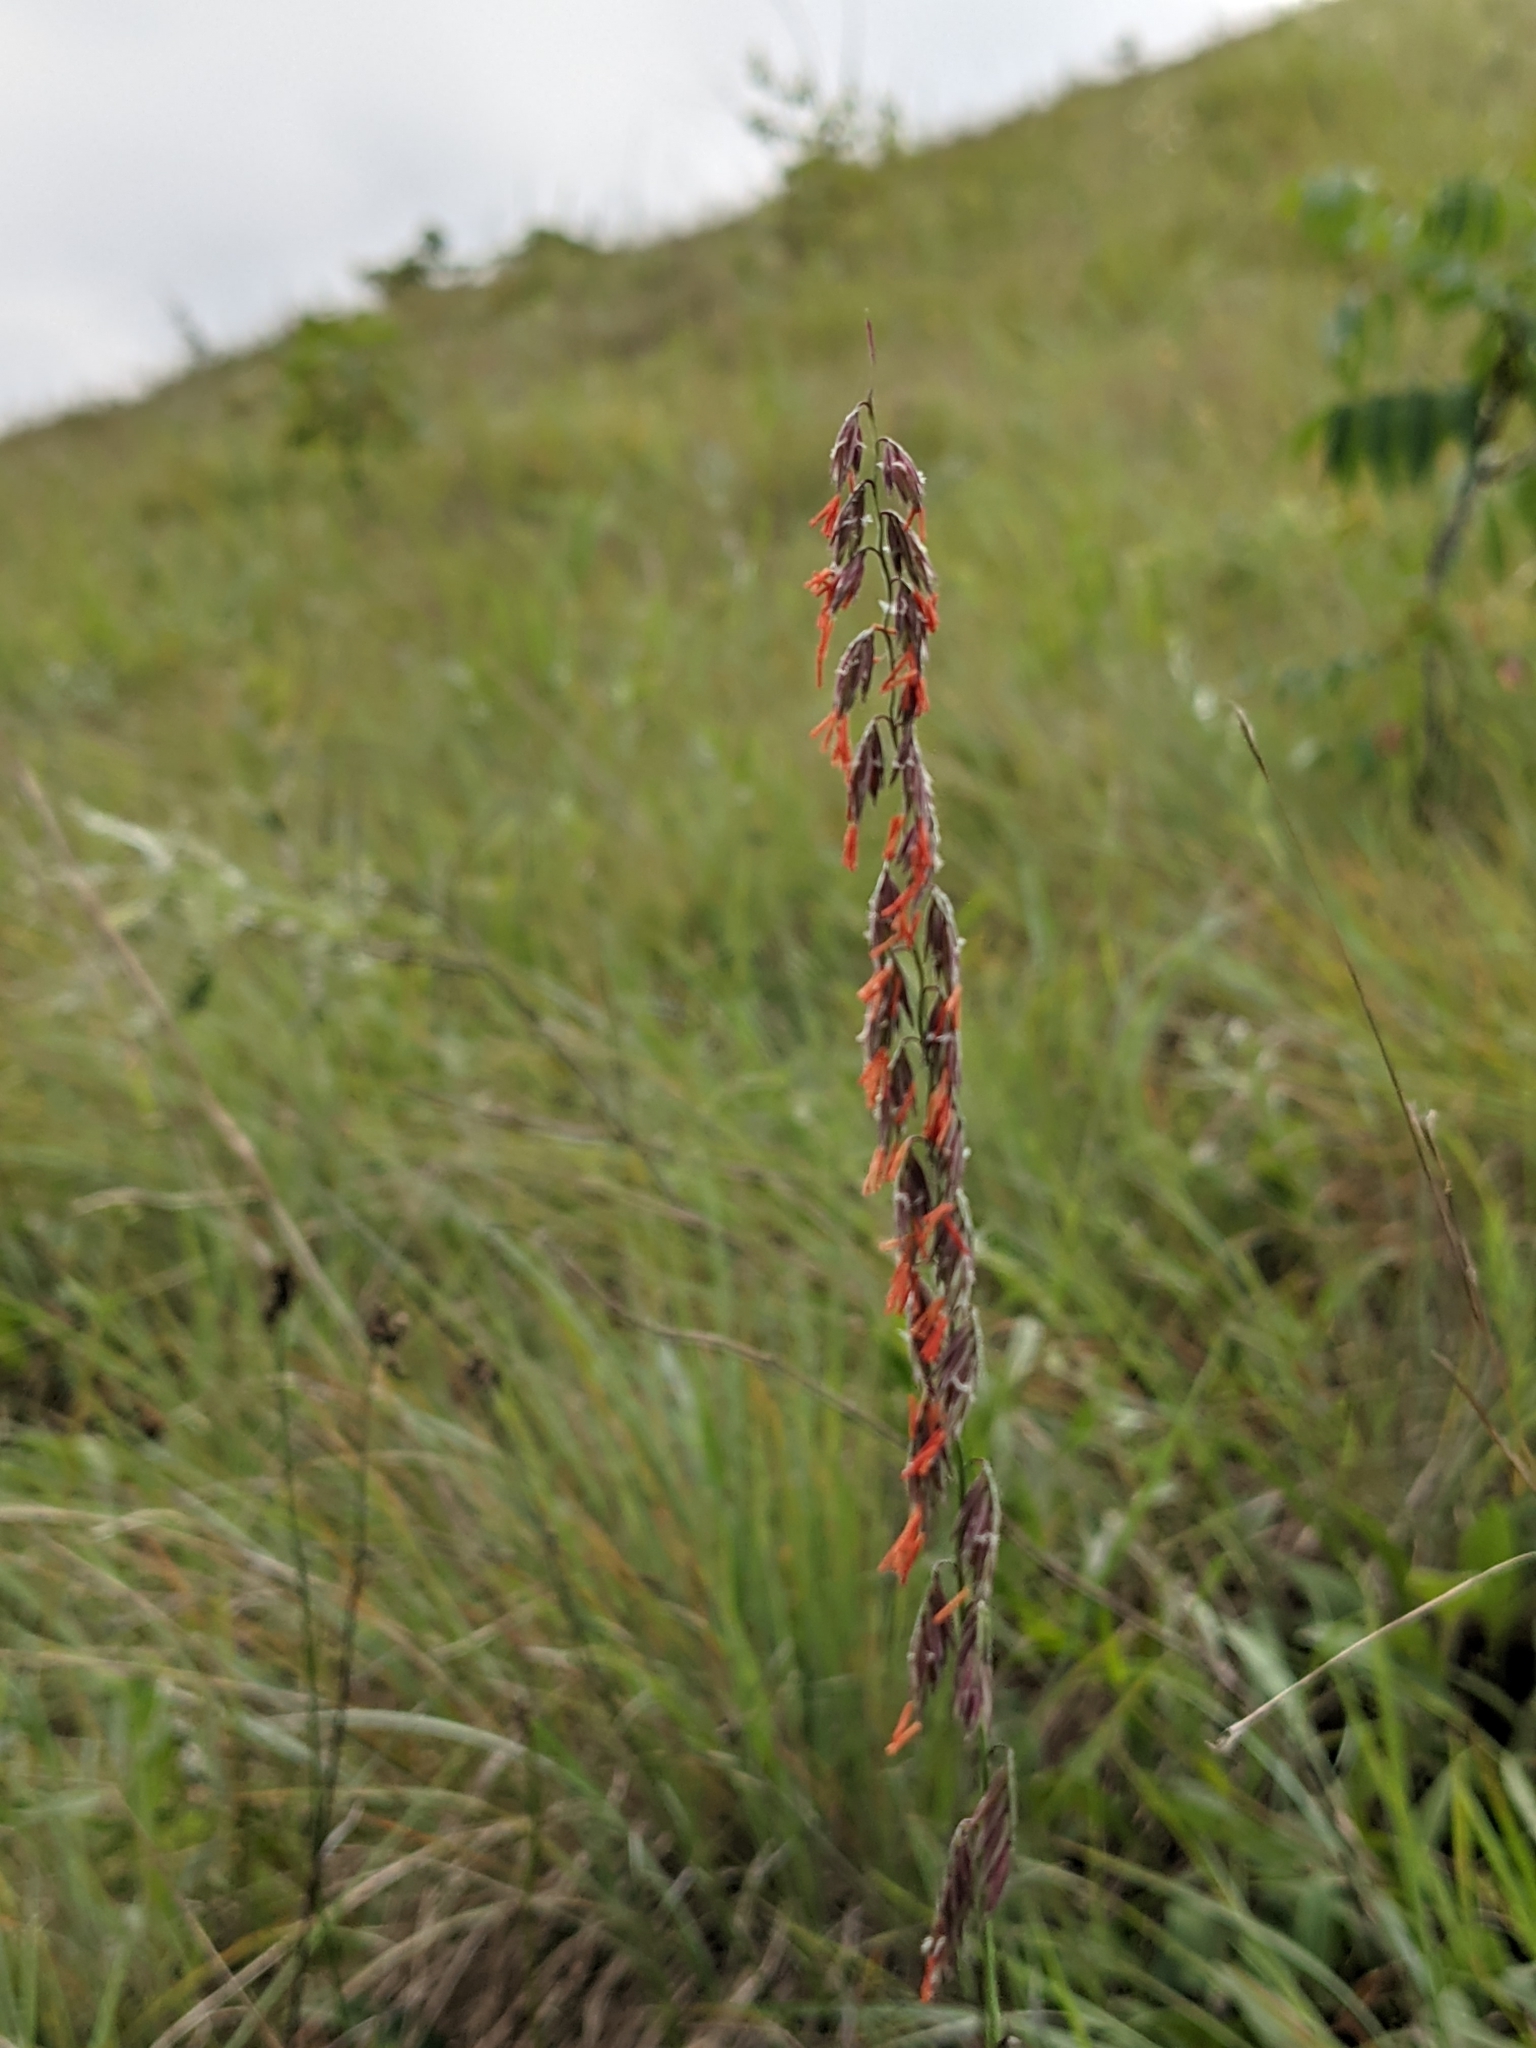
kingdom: Plantae
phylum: Tracheophyta
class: Liliopsida
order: Poales
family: Poaceae
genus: Bouteloua
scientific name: Bouteloua curtipendula
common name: Side-oats grama
